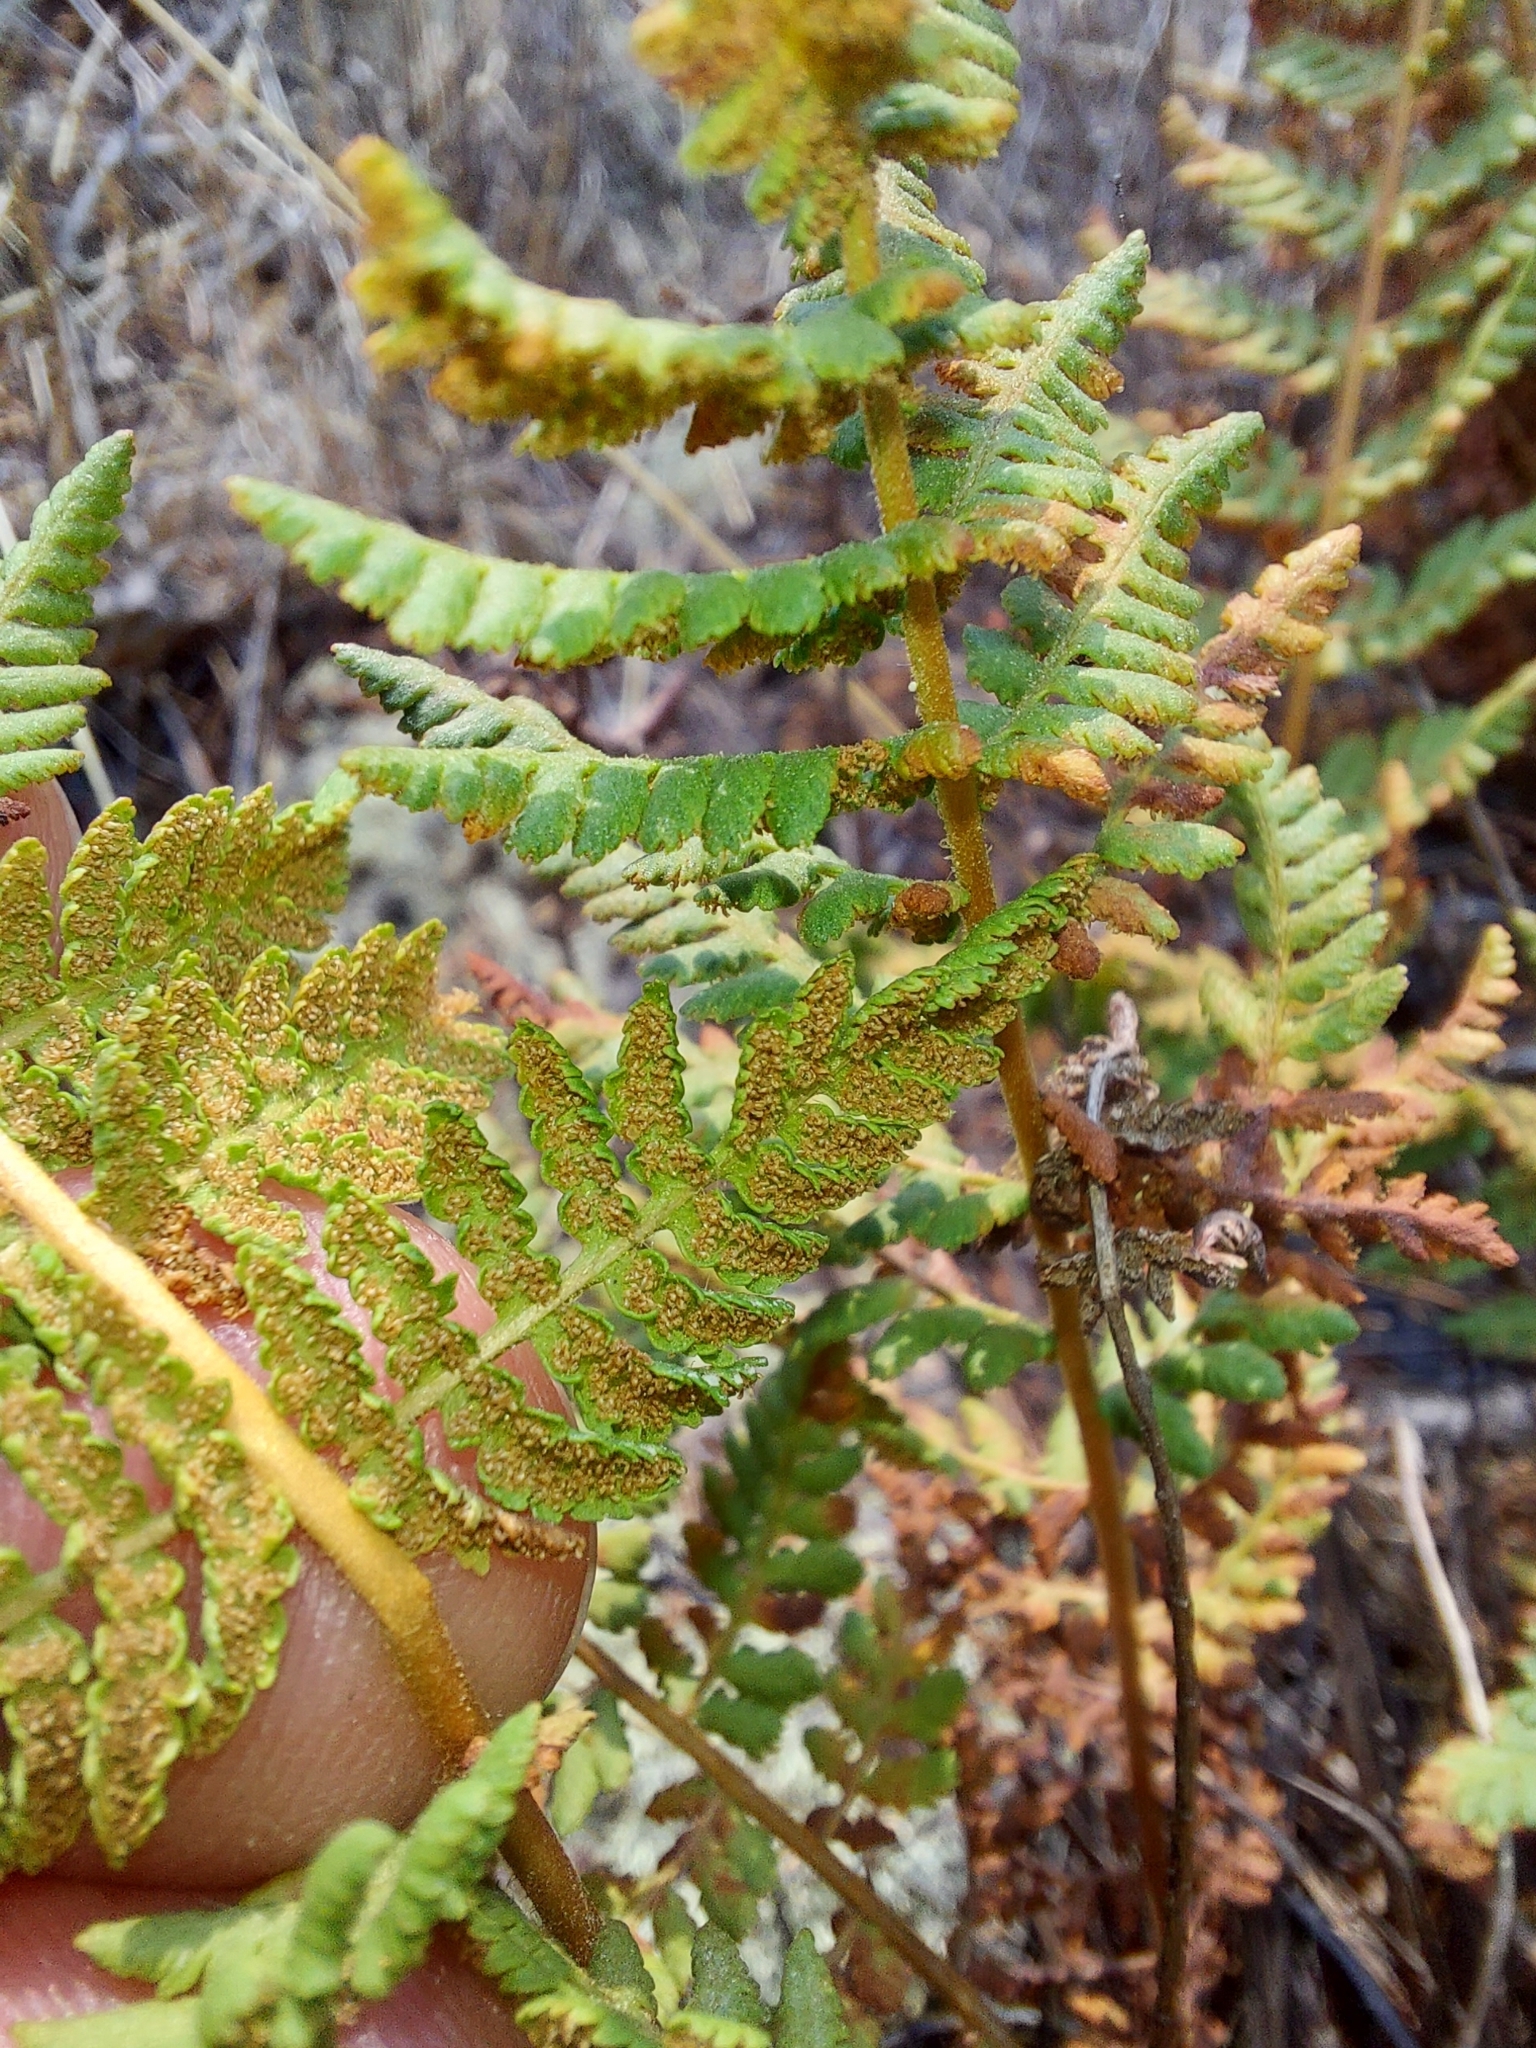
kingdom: Plantae
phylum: Tracheophyta
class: Polypodiopsida
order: Polypodiales
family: Woodsiaceae
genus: Physematium
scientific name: Physematium scopulinum
